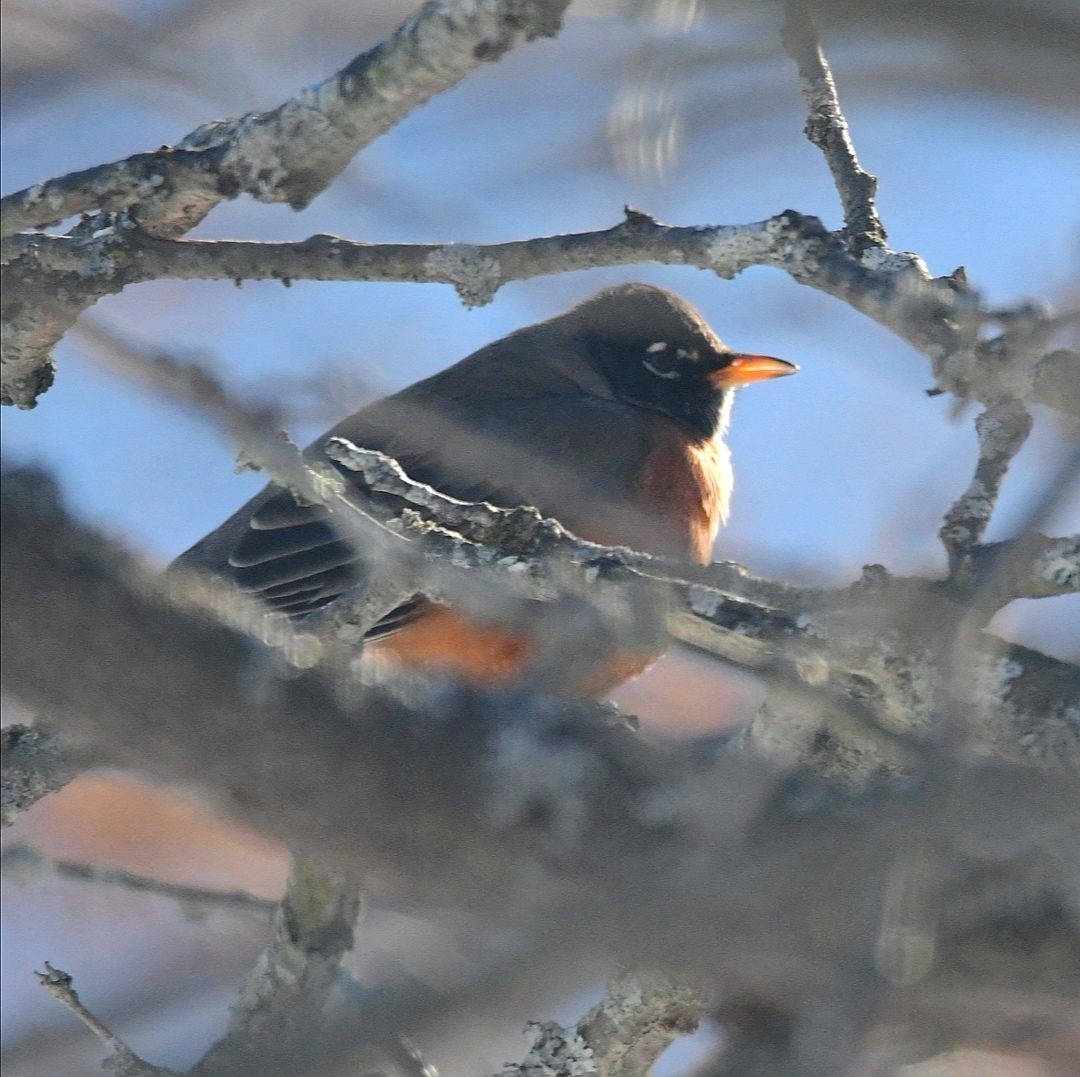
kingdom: Animalia
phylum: Chordata
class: Aves
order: Passeriformes
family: Turdidae
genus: Turdus
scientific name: Turdus migratorius
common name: American robin
